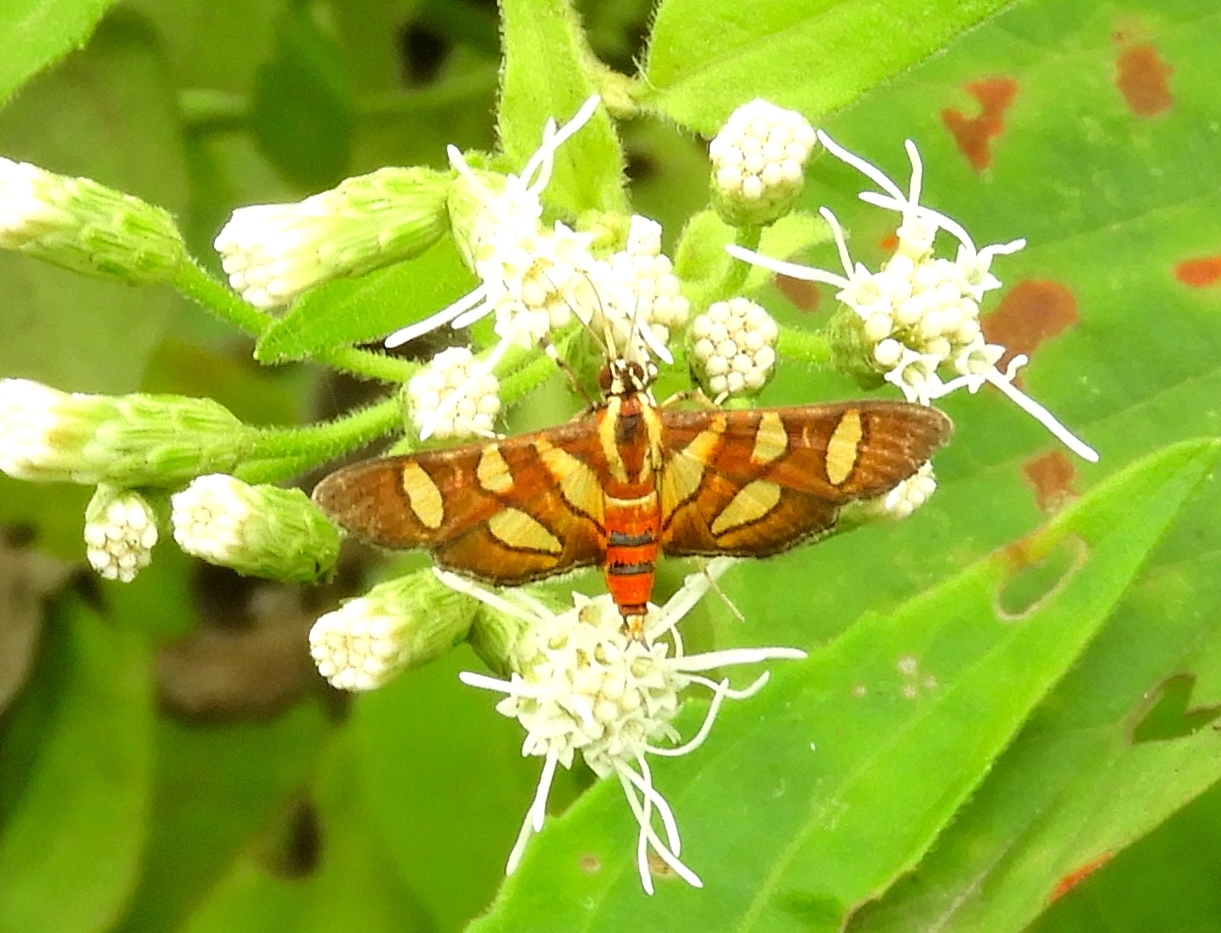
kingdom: Animalia
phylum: Arthropoda
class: Insecta
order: Lepidoptera
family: Crambidae
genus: Syngamia
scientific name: Syngamia florella
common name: Orange-spotted flower moth
